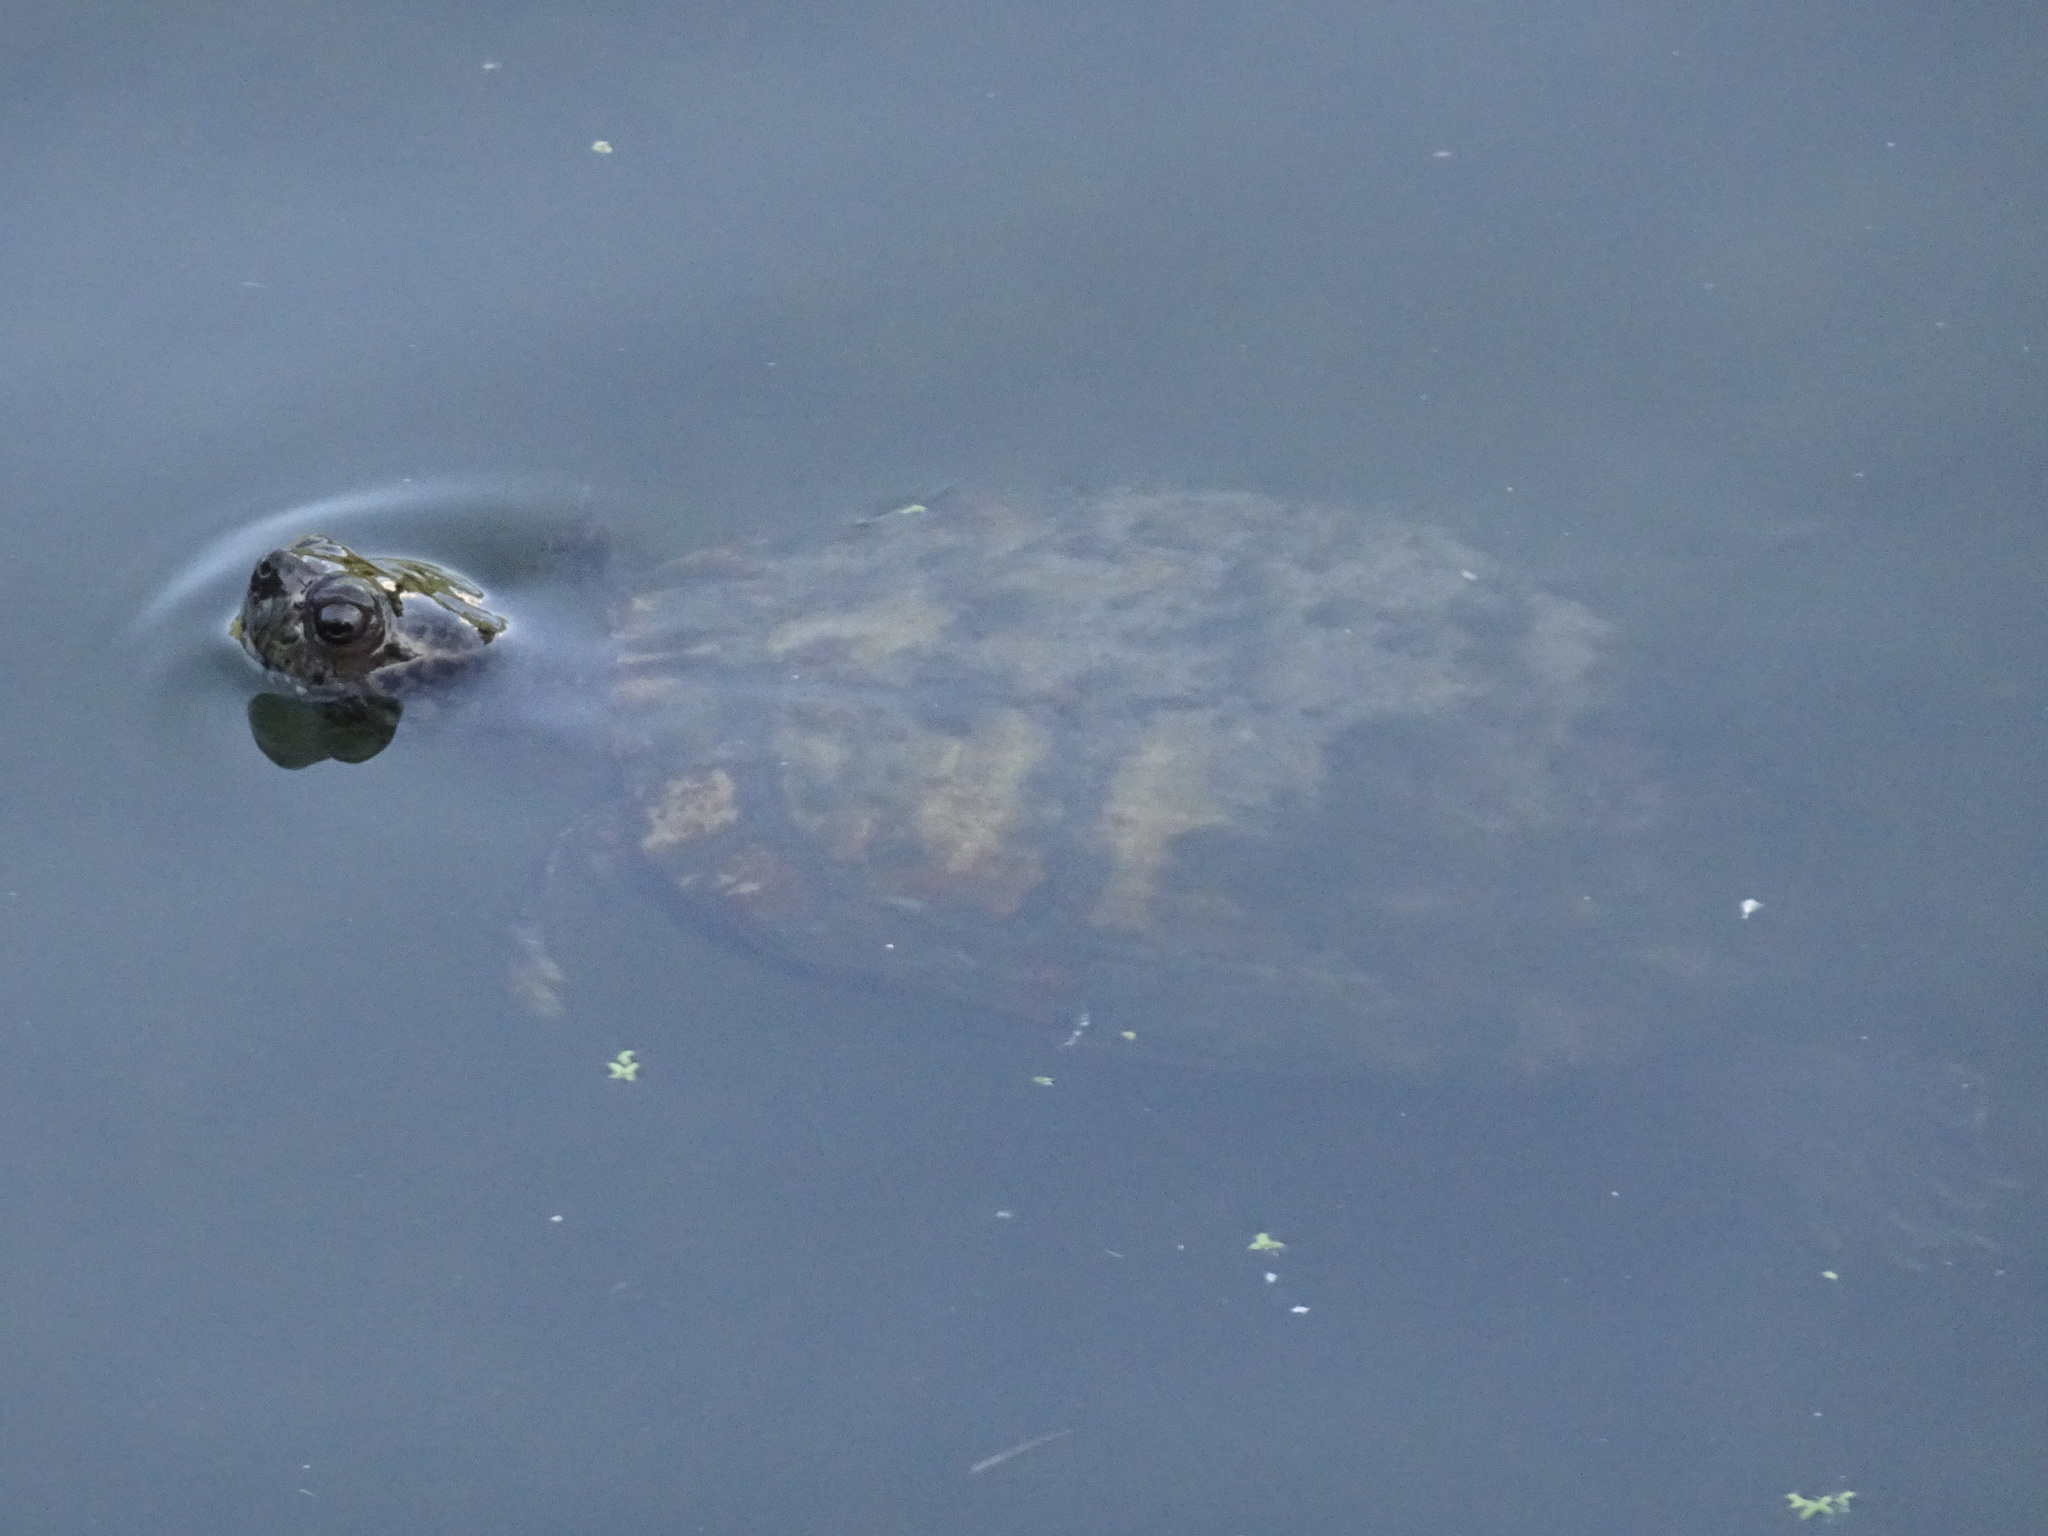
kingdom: Animalia
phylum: Chordata
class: Testudines
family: Emydidae
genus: Trachemys
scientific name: Trachemys scripta
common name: Slider
